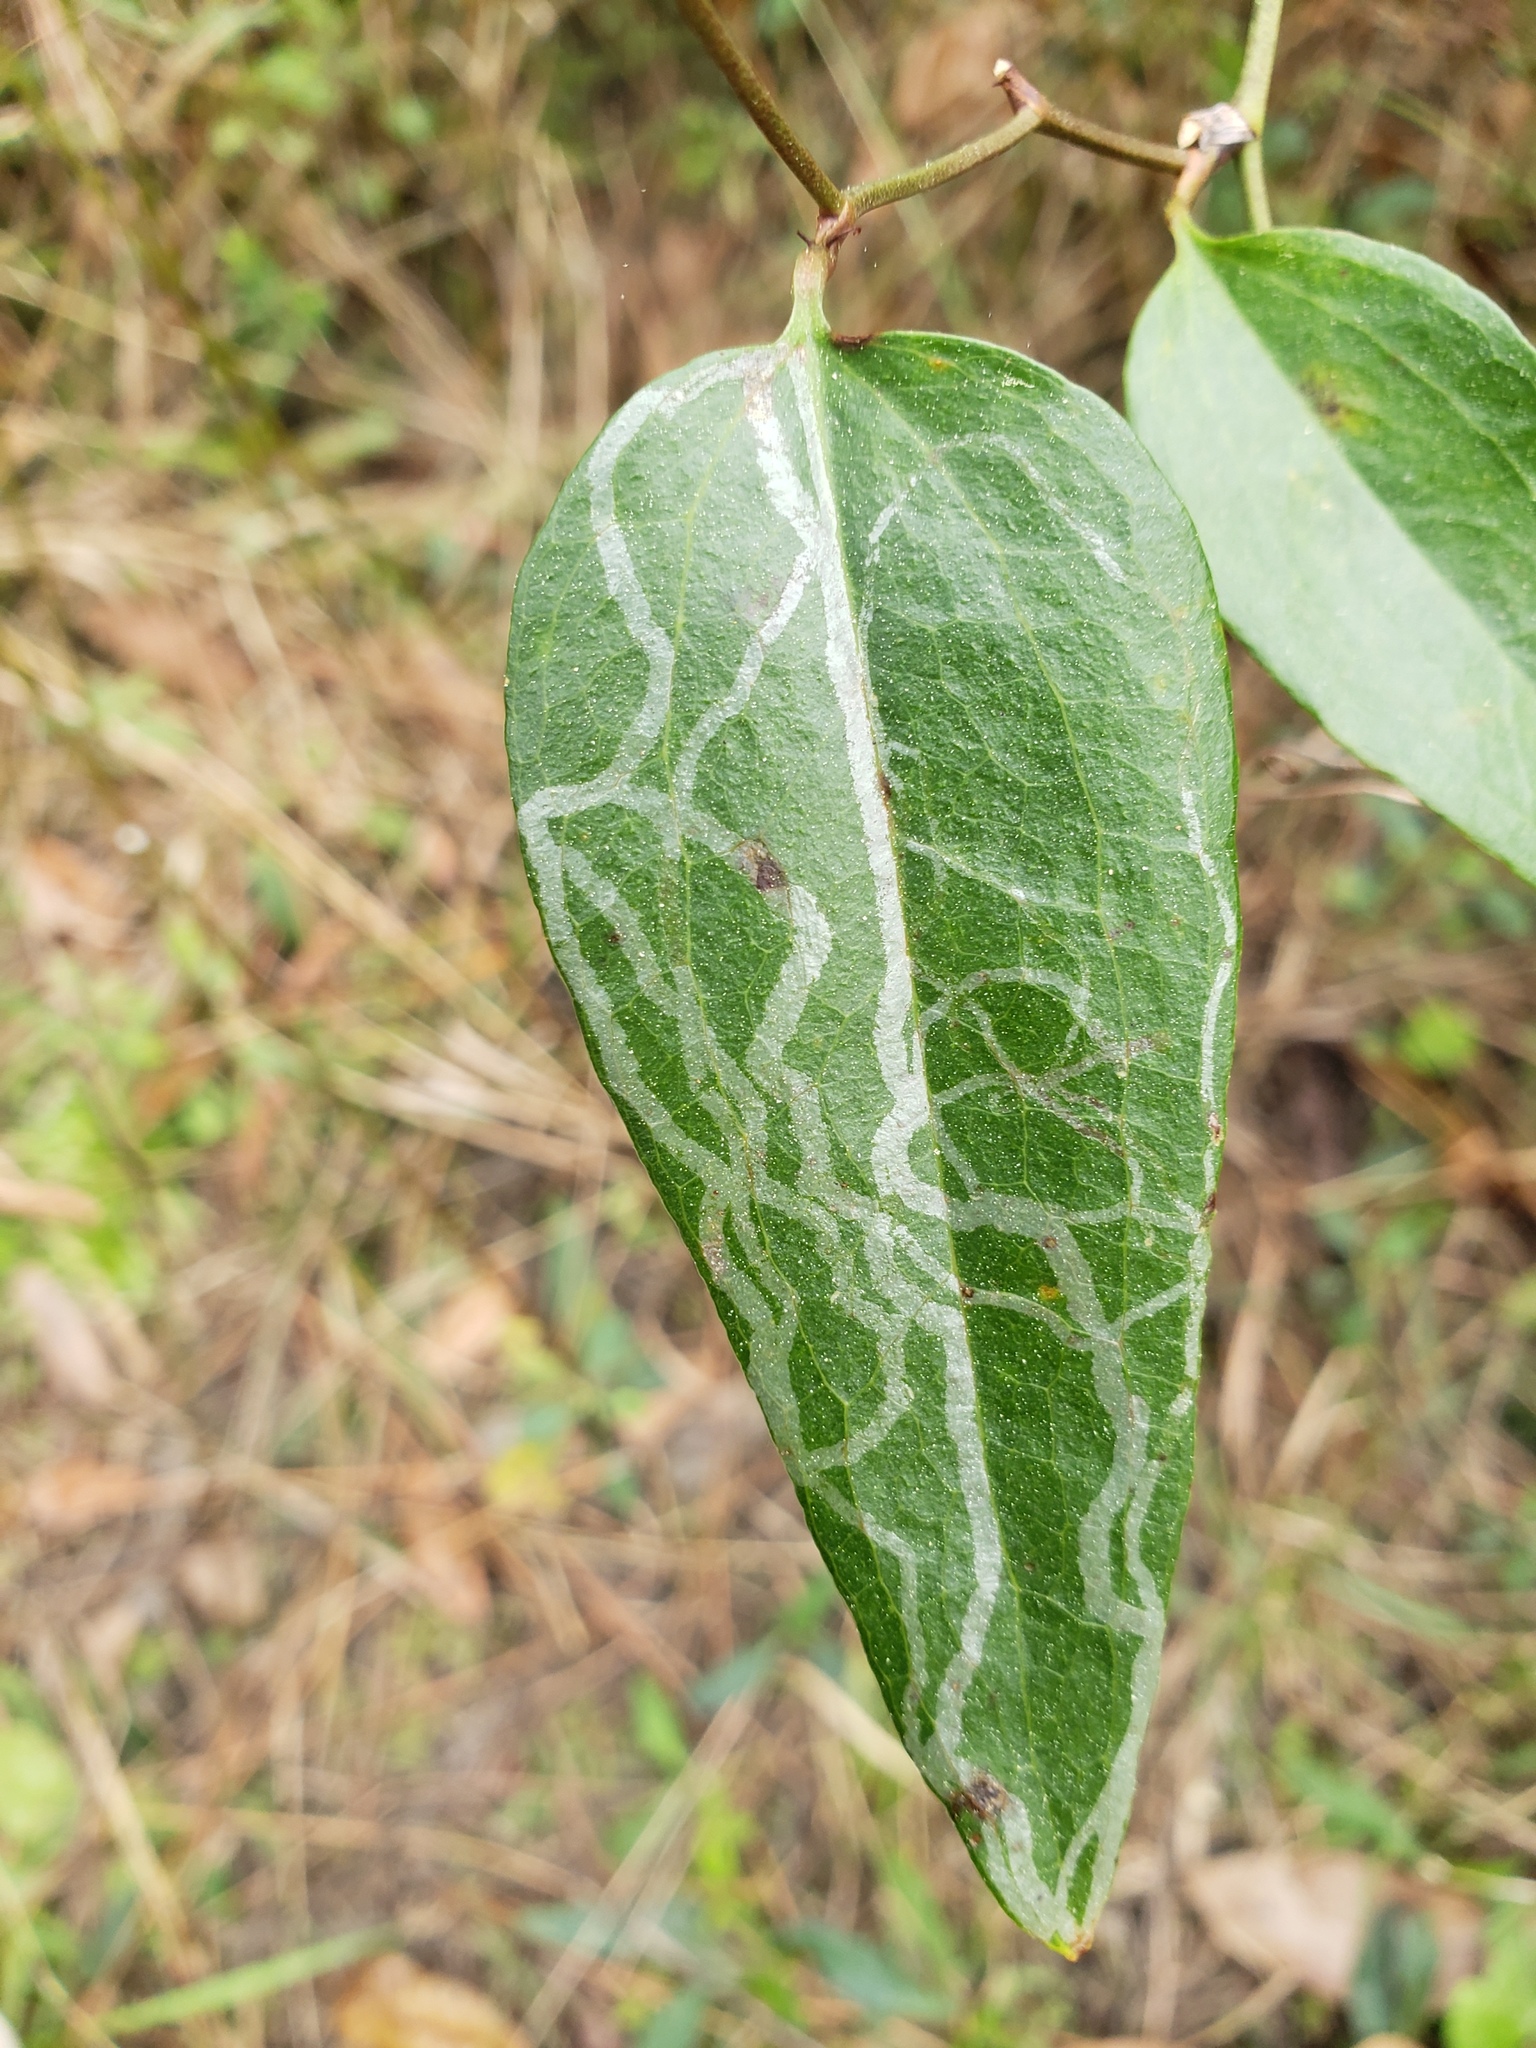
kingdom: Animalia
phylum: Arthropoda
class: Insecta
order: Lepidoptera
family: Gracillariidae
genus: Marmara
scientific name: Marmara smilacisella
